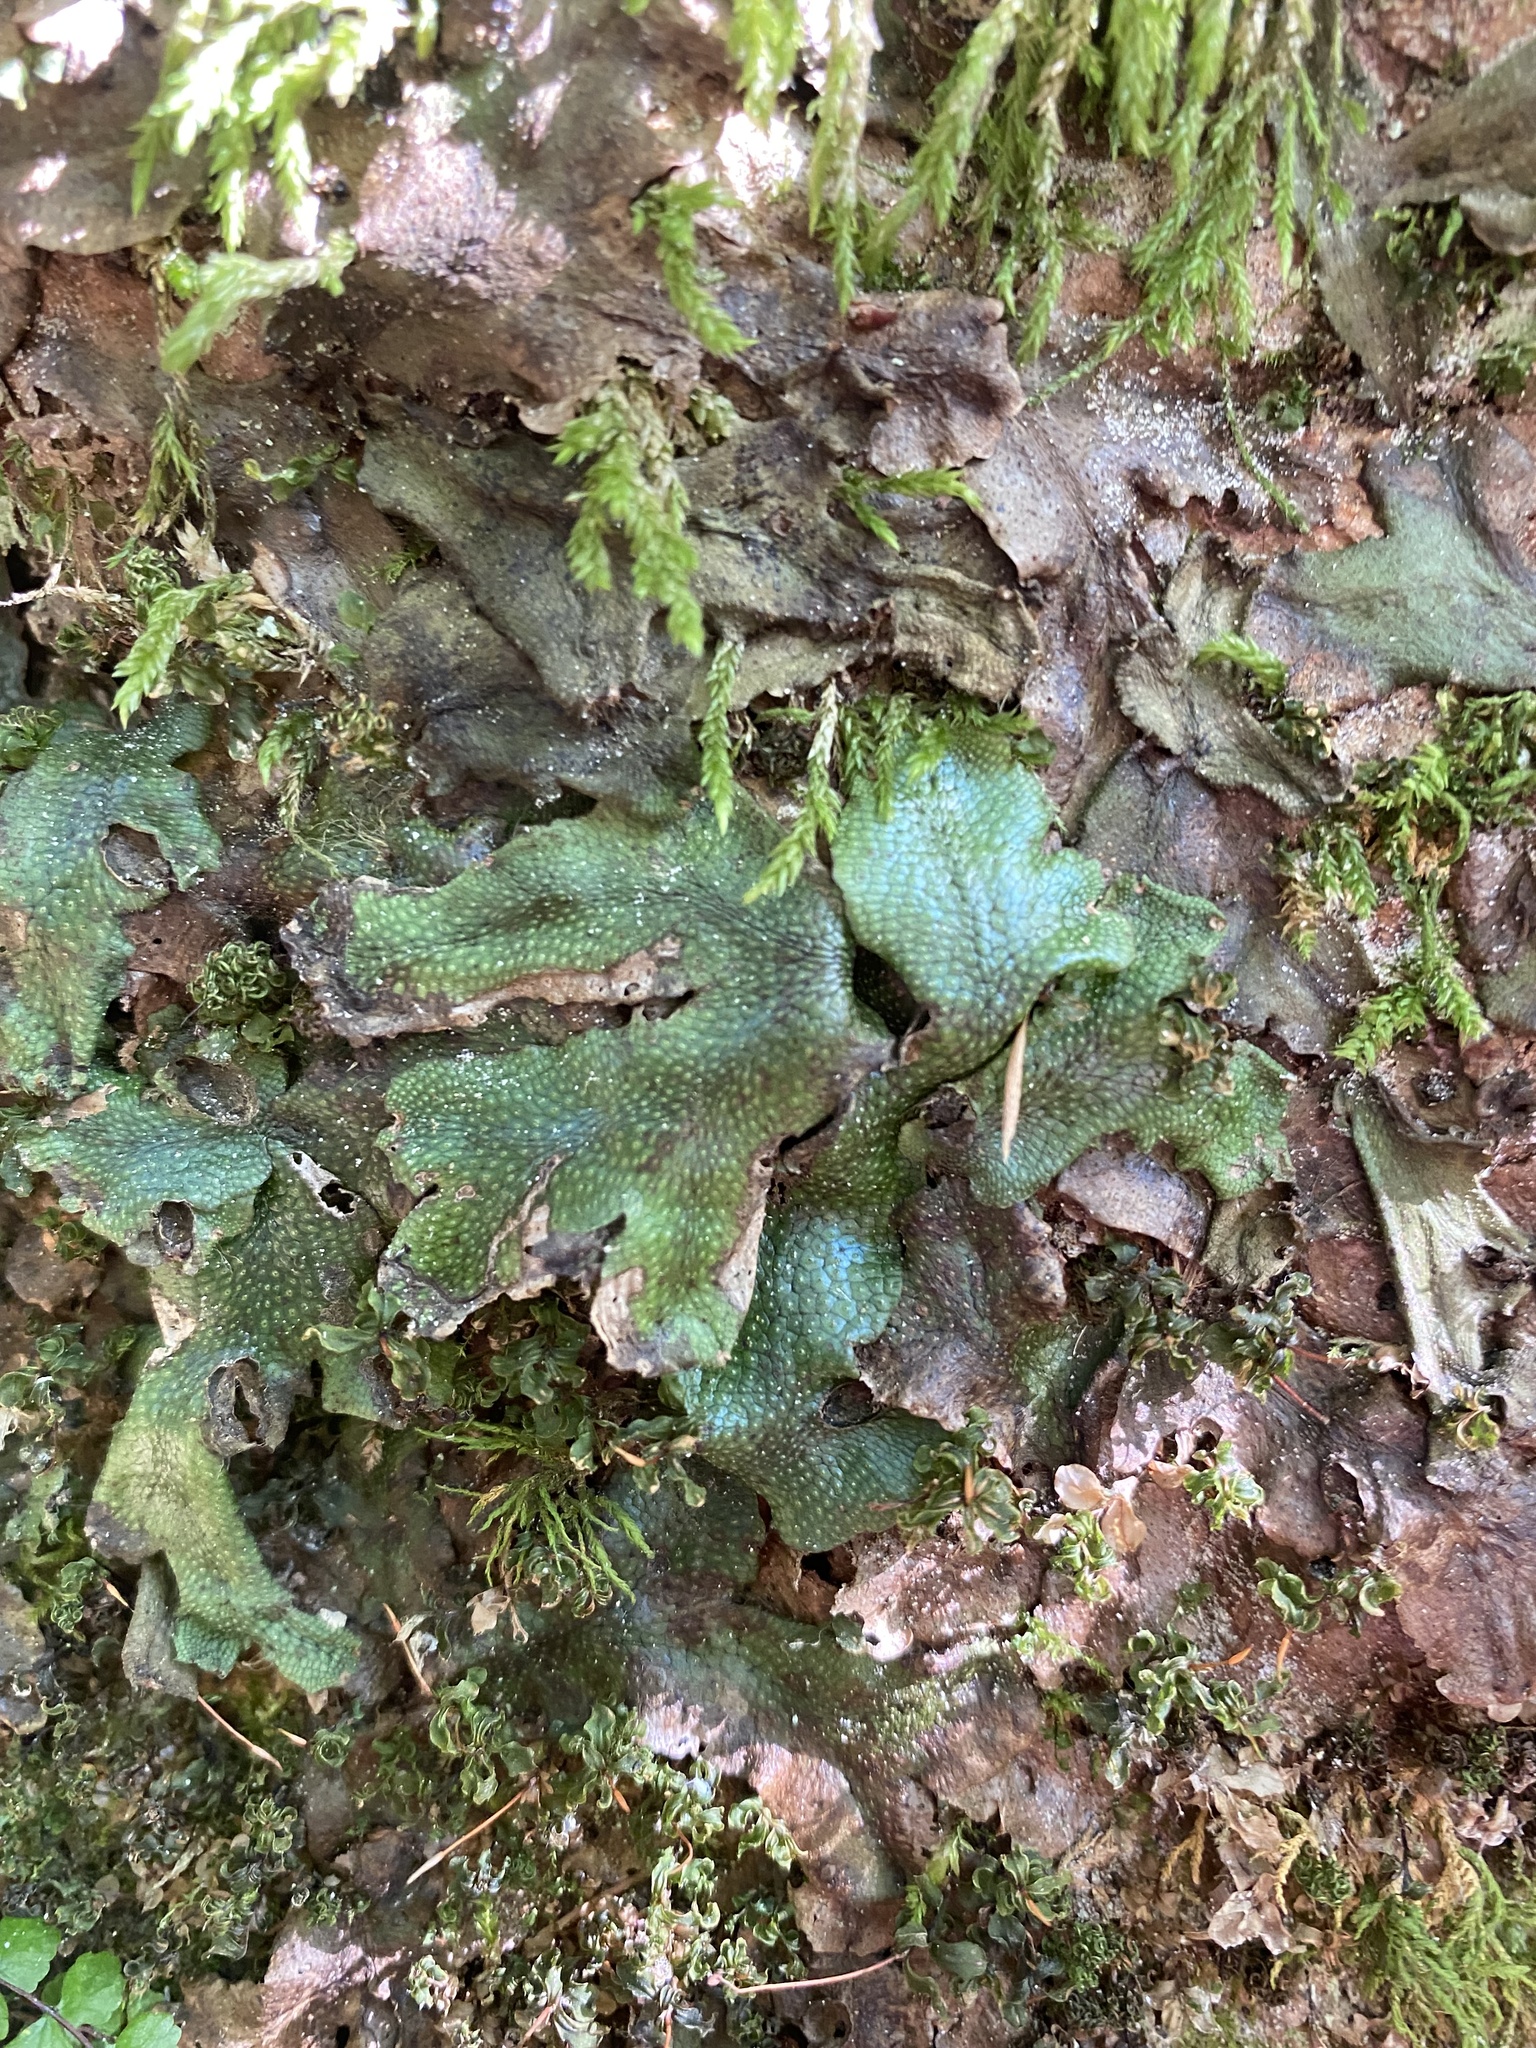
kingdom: Plantae
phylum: Marchantiophyta
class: Marchantiopsida
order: Marchantiales
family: Conocephalaceae
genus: Conocephalum
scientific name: Conocephalum salebrosum
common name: Cat-tongue liverwort
